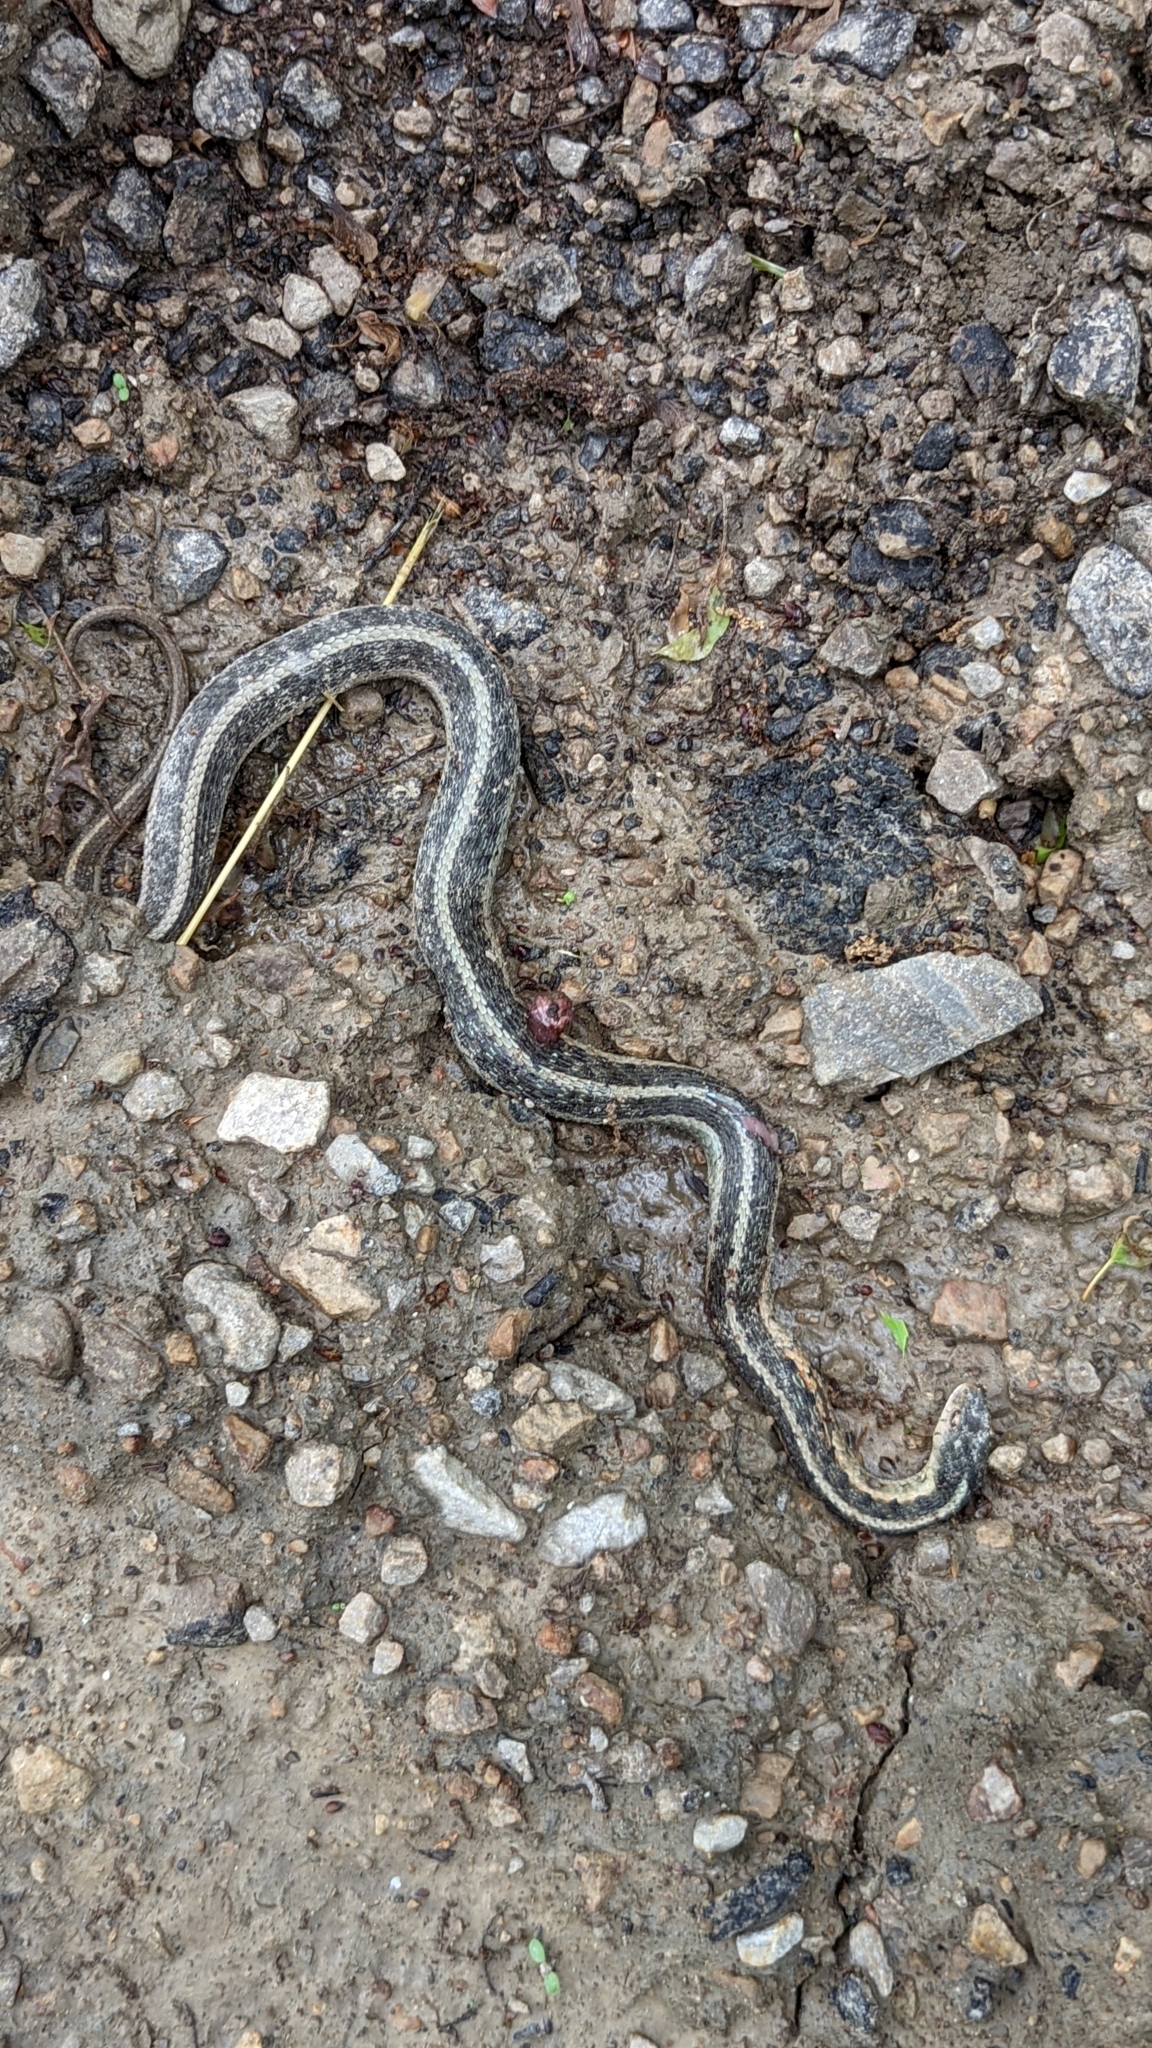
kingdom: Animalia
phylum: Chordata
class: Squamata
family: Colubridae
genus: Thamnophis
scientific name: Thamnophis sirtalis
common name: Common garter snake
